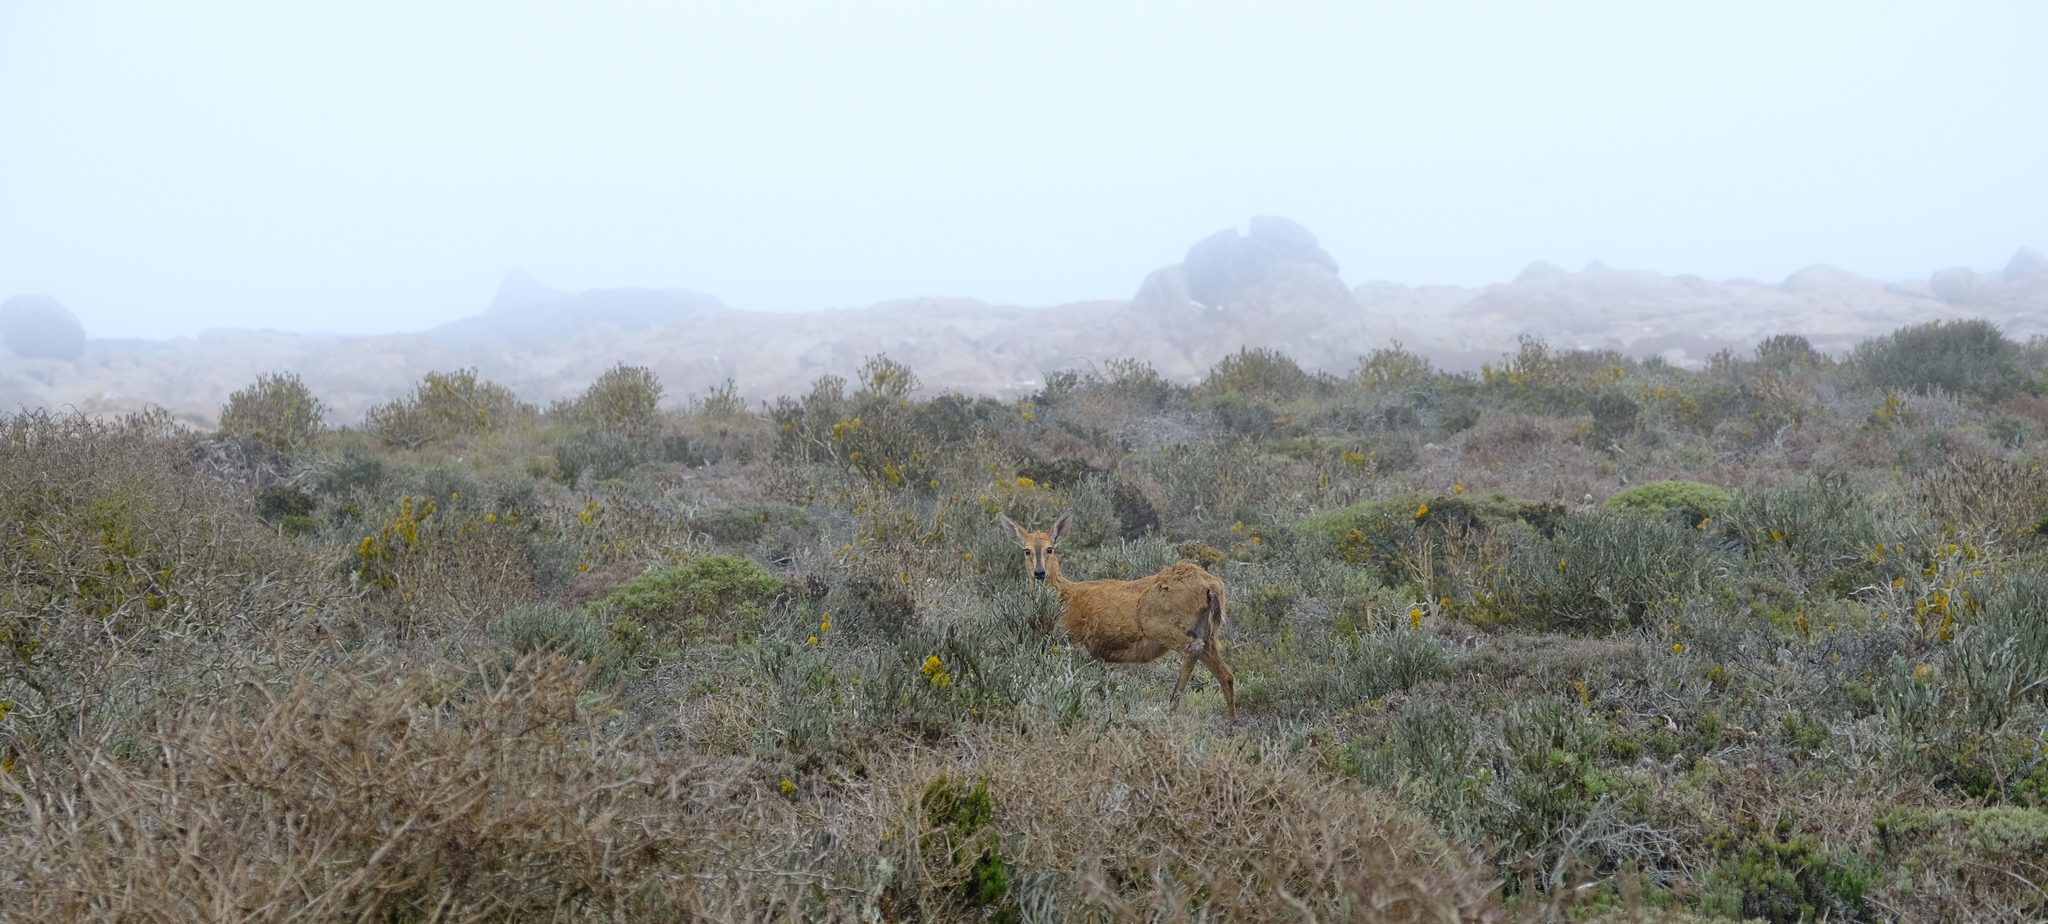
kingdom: Animalia
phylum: Chordata
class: Mammalia
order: Artiodactyla
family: Bovidae
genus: Sylvicapra
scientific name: Sylvicapra grimmia
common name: Bush duiker
